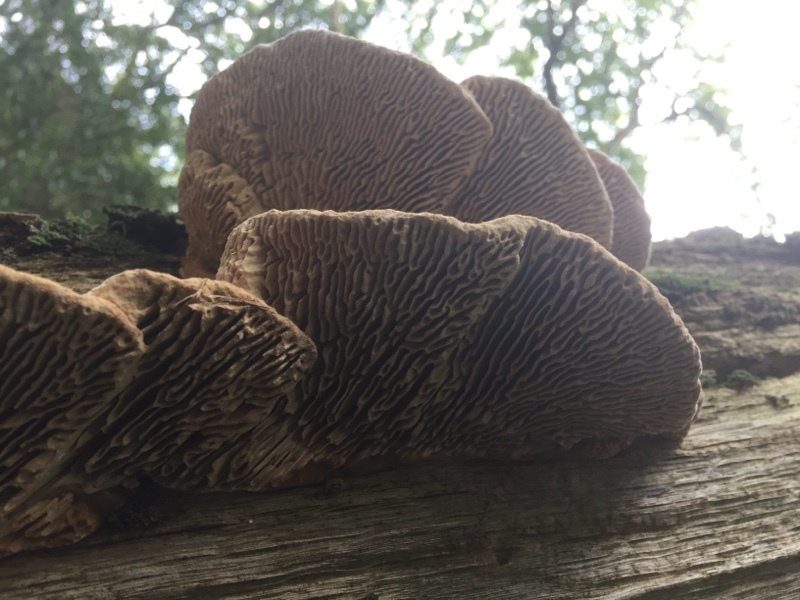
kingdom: Fungi
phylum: Basidiomycota
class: Agaricomycetes
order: Polyporales
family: Fomitopsidaceae
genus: Fomitopsis
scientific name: Fomitopsis
